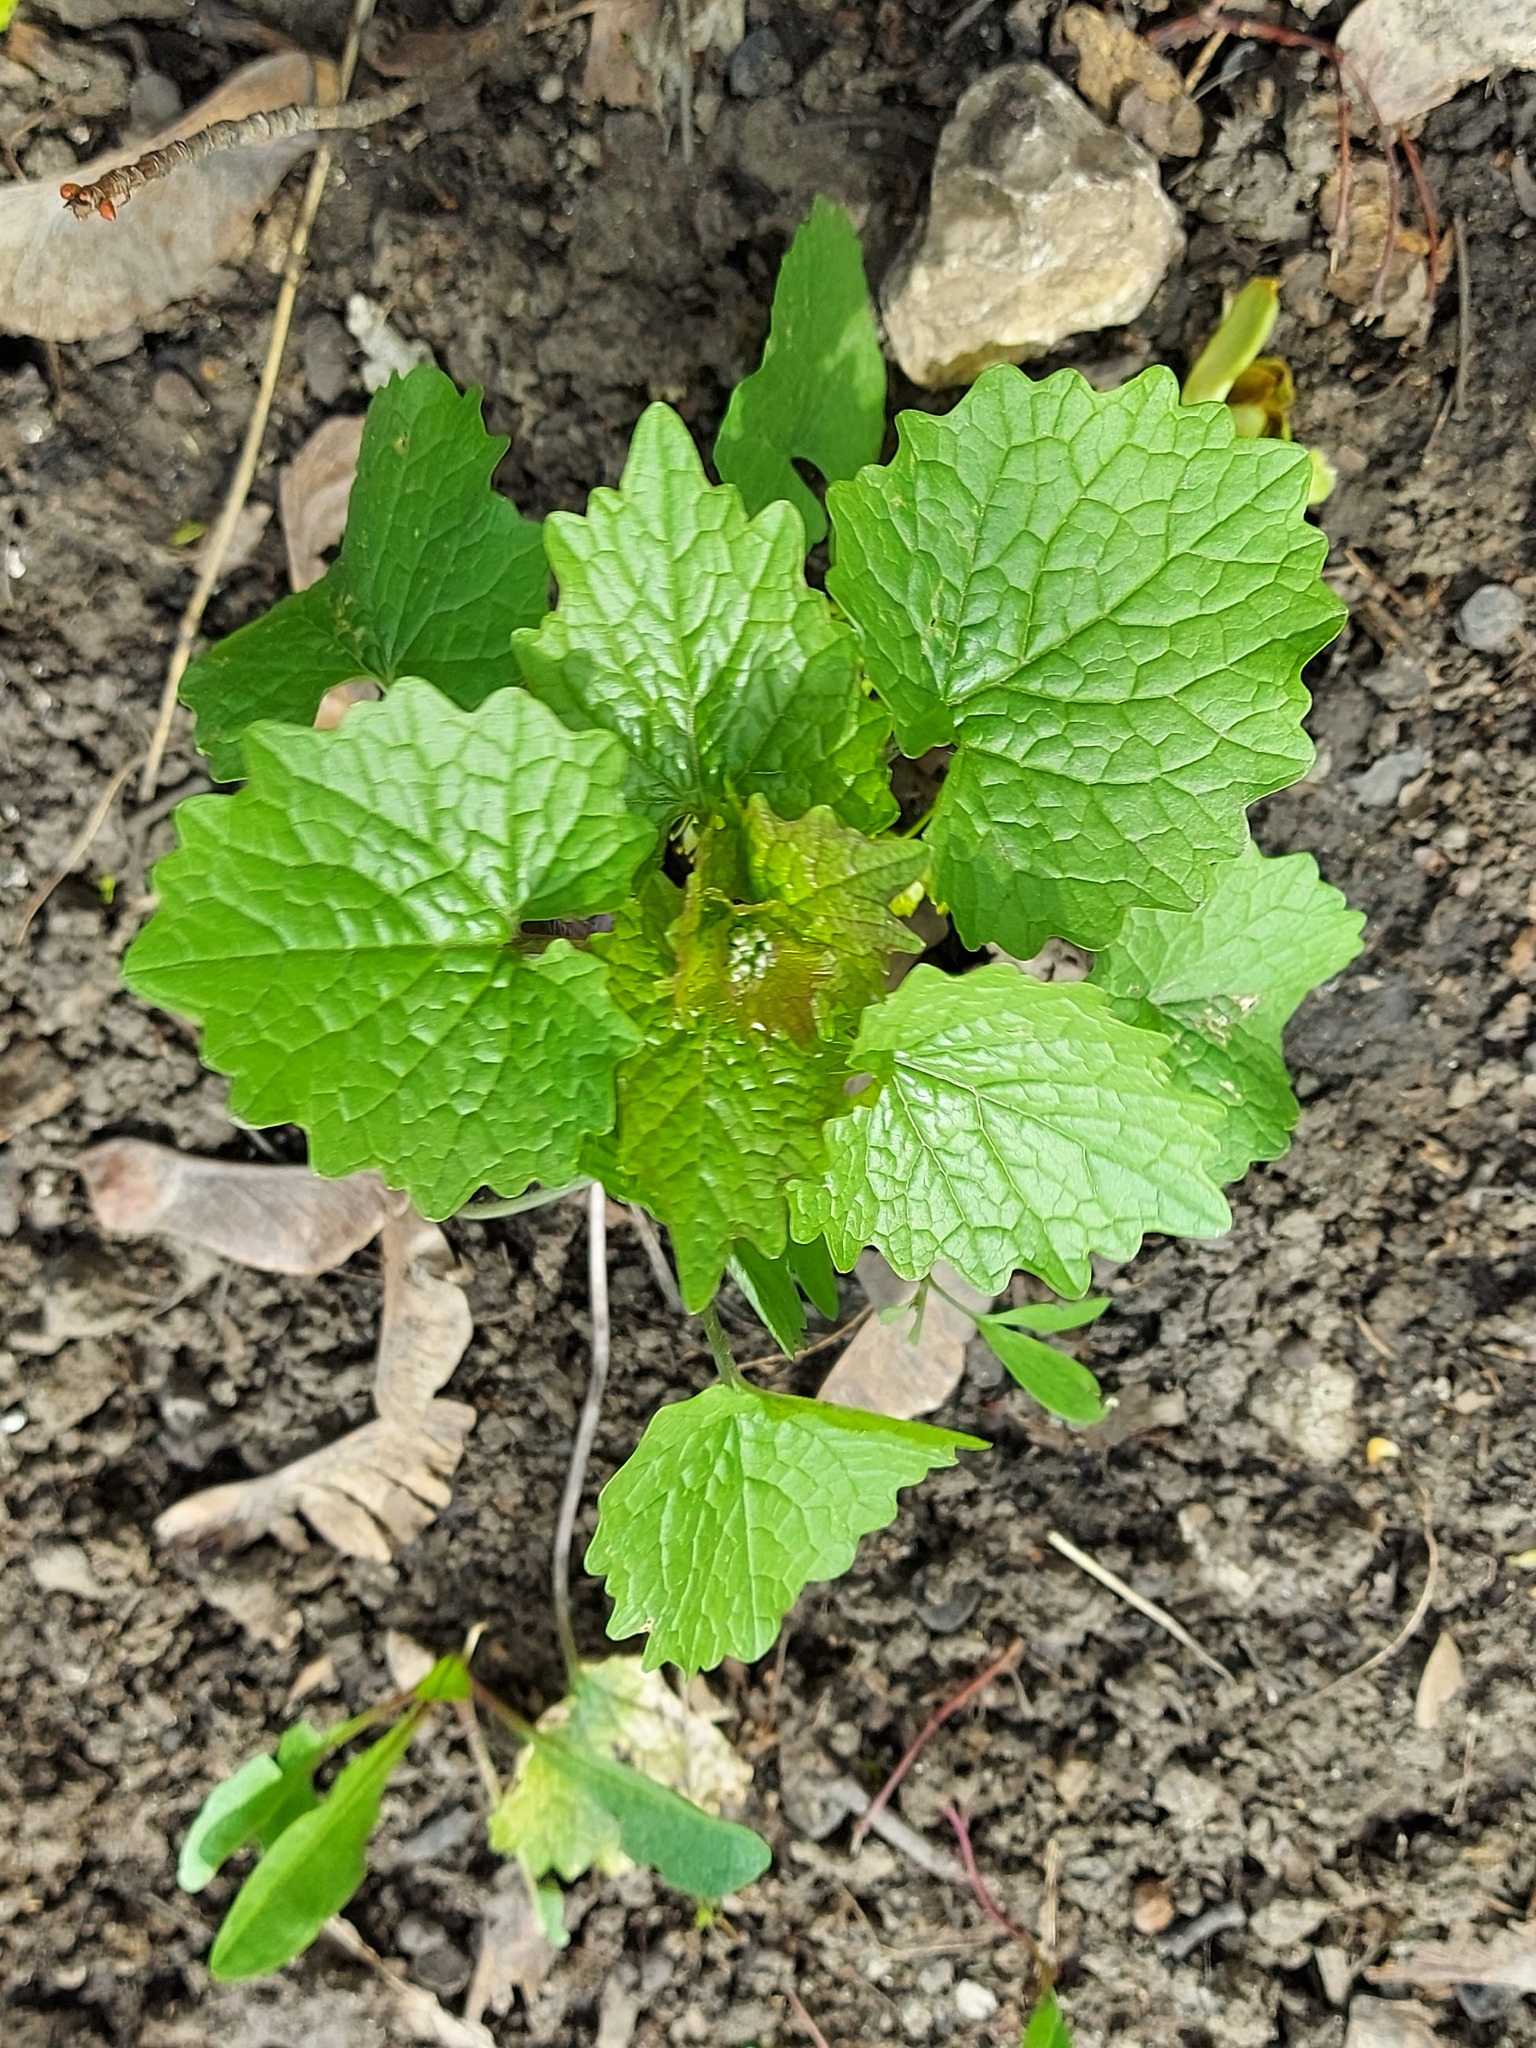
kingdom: Plantae
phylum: Tracheophyta
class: Magnoliopsida
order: Brassicales
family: Brassicaceae
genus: Alliaria
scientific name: Alliaria petiolata
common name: Garlic mustard
